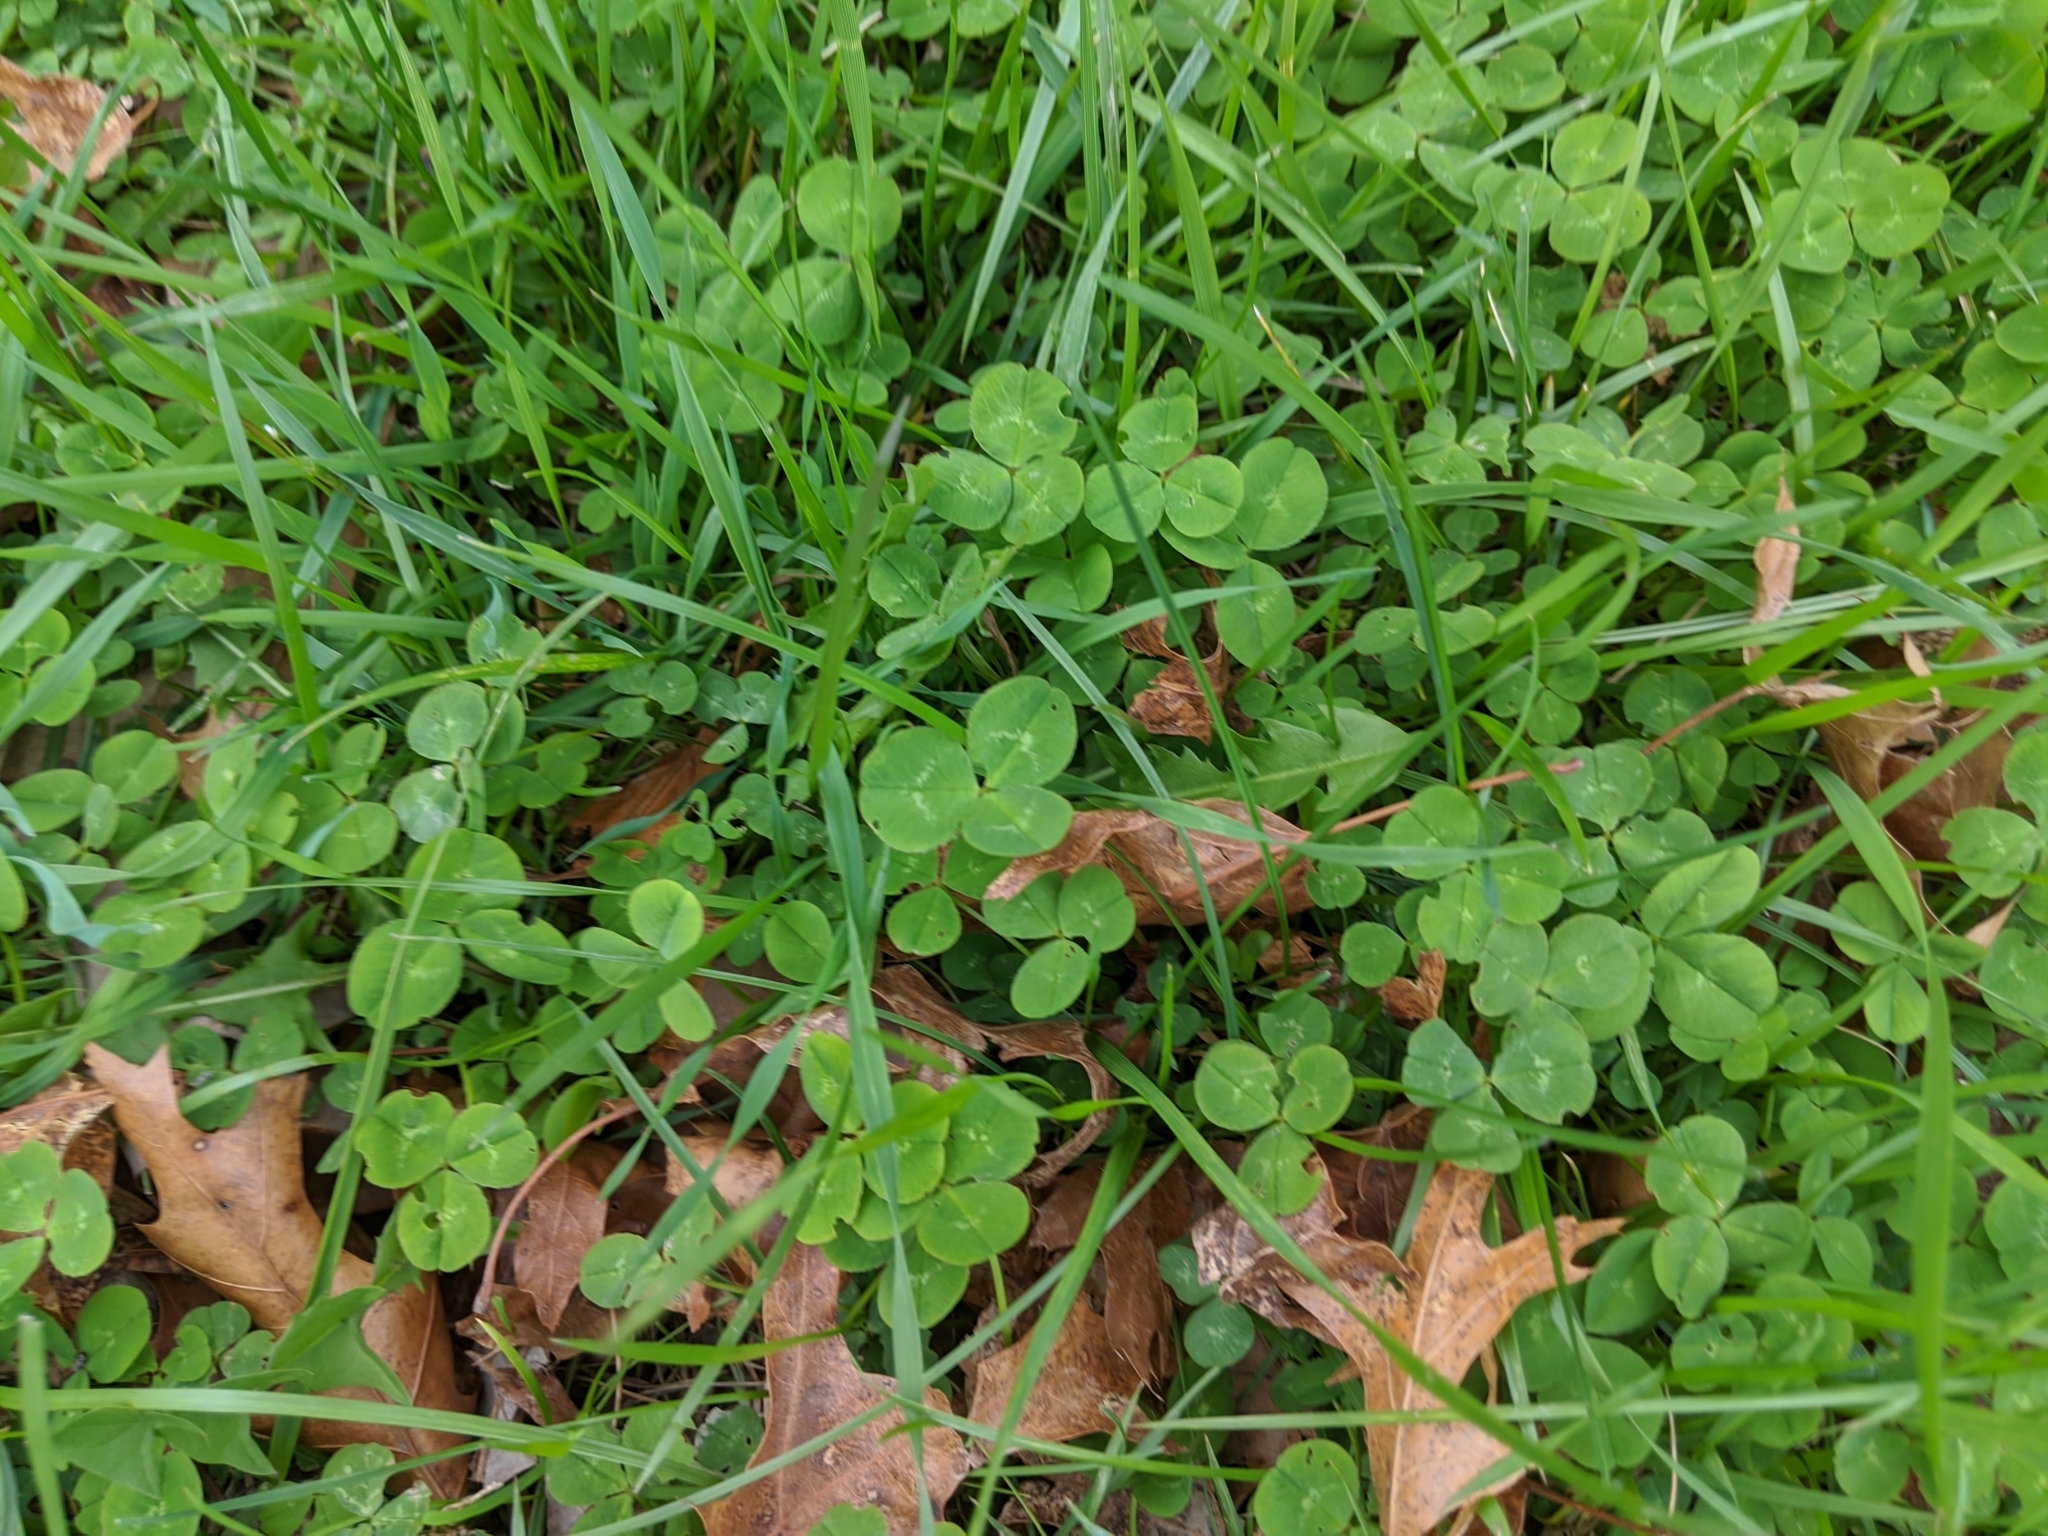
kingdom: Plantae
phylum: Tracheophyta
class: Magnoliopsida
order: Fabales
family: Fabaceae
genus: Trifolium
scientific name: Trifolium repens
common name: White clover
